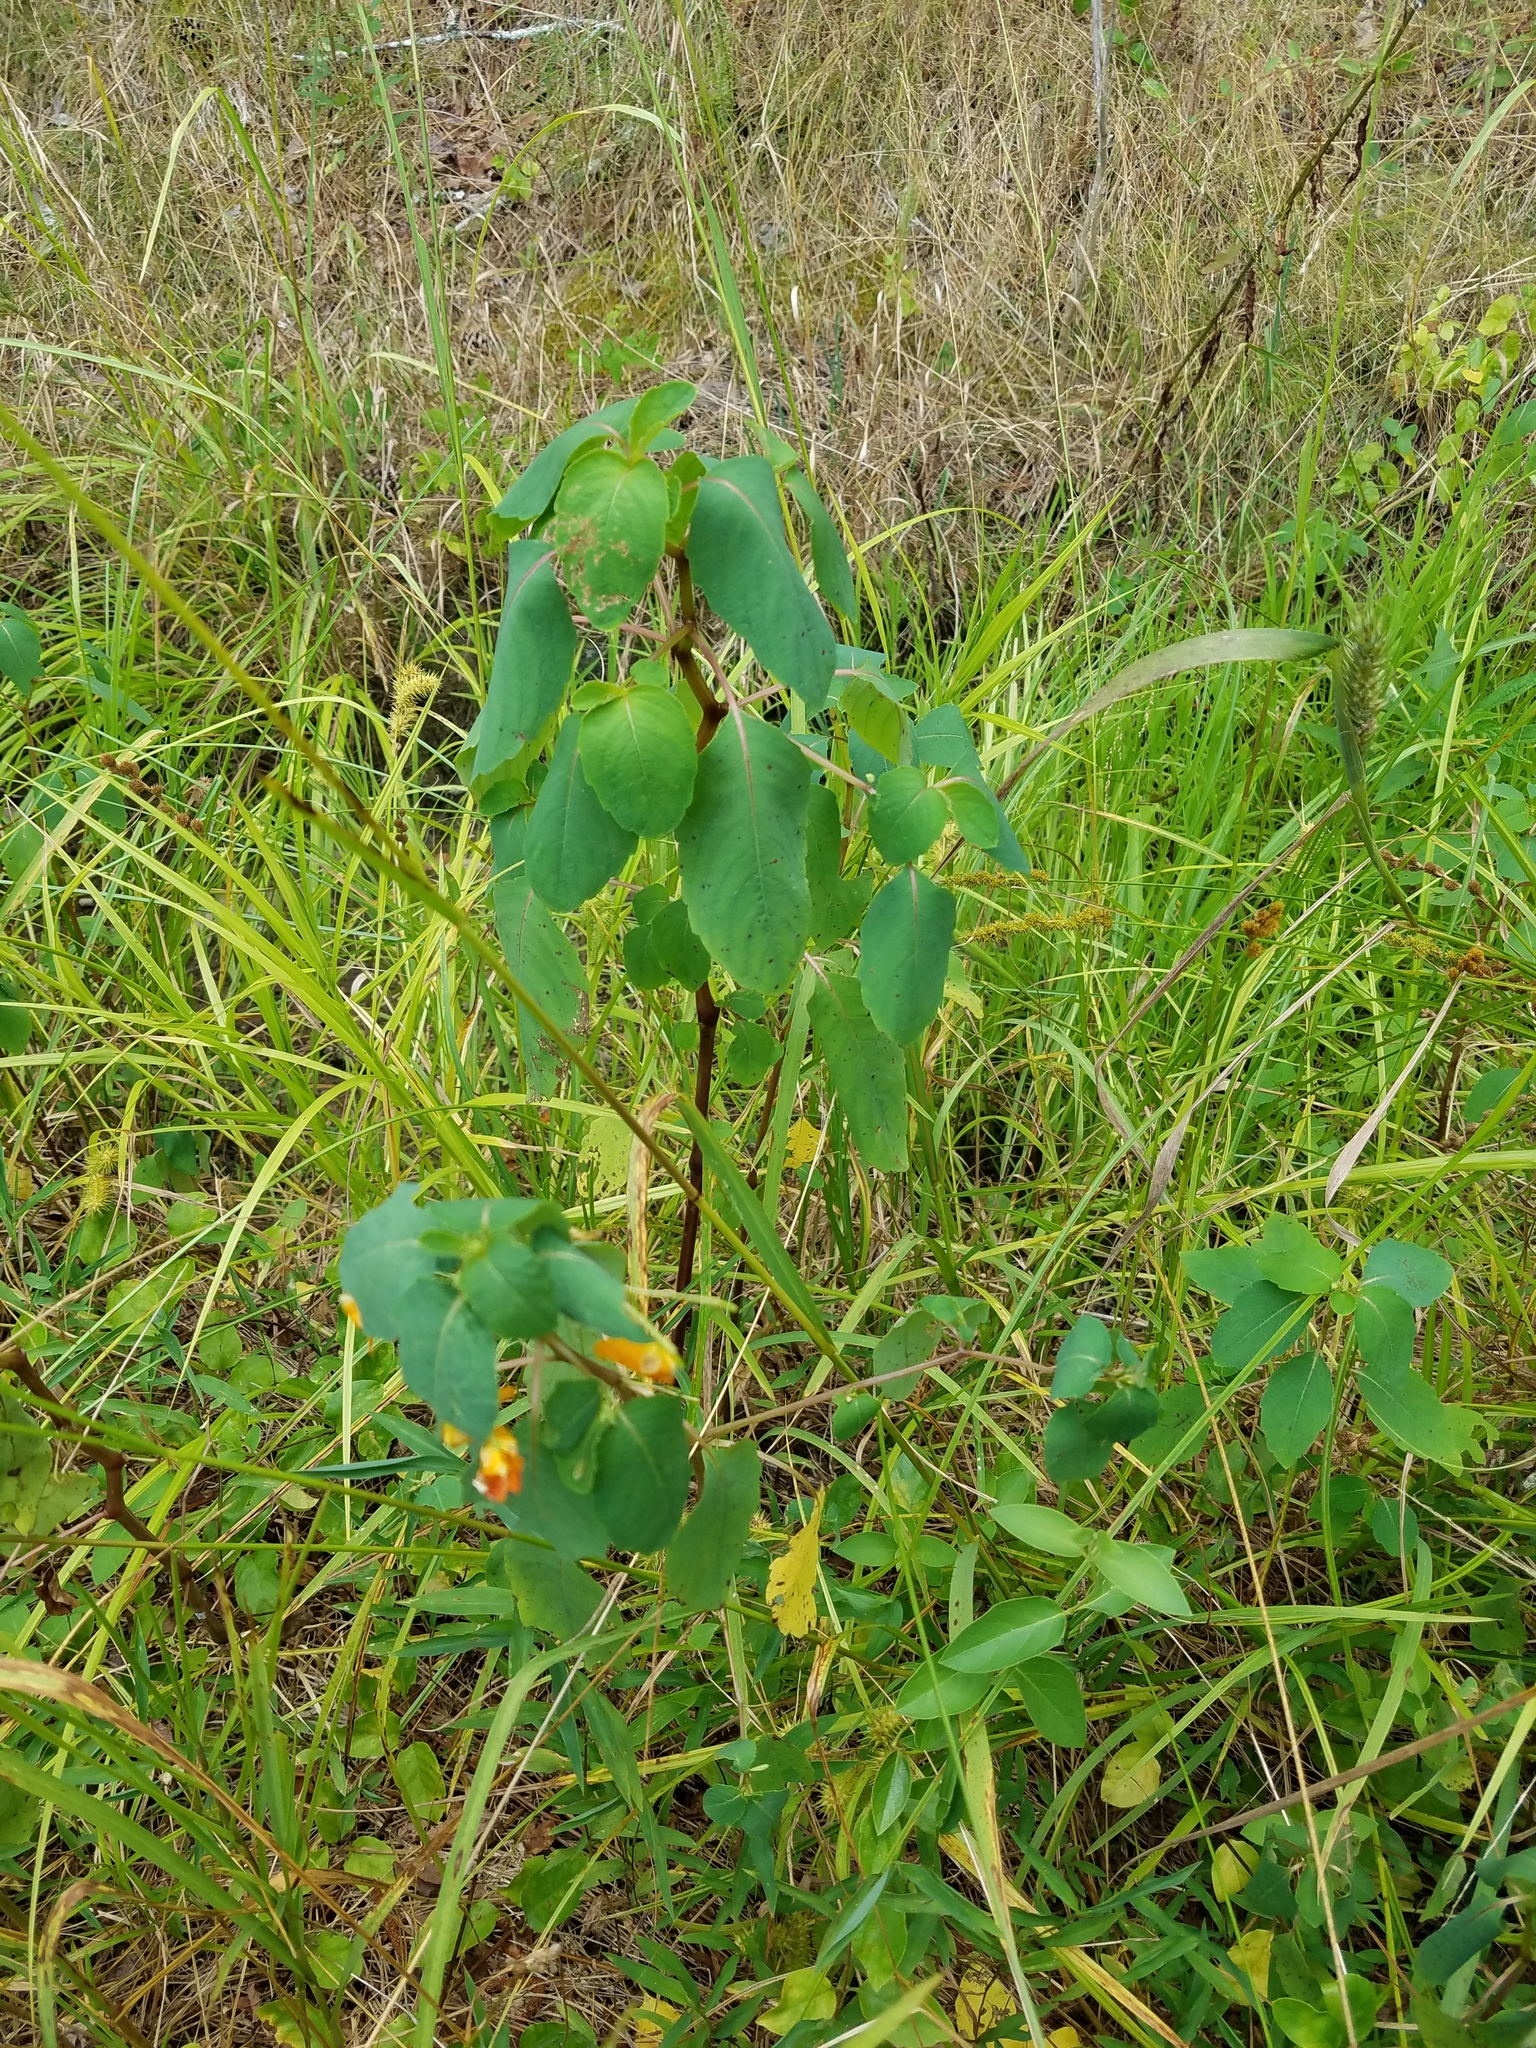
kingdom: Plantae
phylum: Tracheophyta
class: Magnoliopsida
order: Ericales
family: Balsaminaceae
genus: Impatiens
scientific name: Impatiens capensis
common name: Orange balsam
